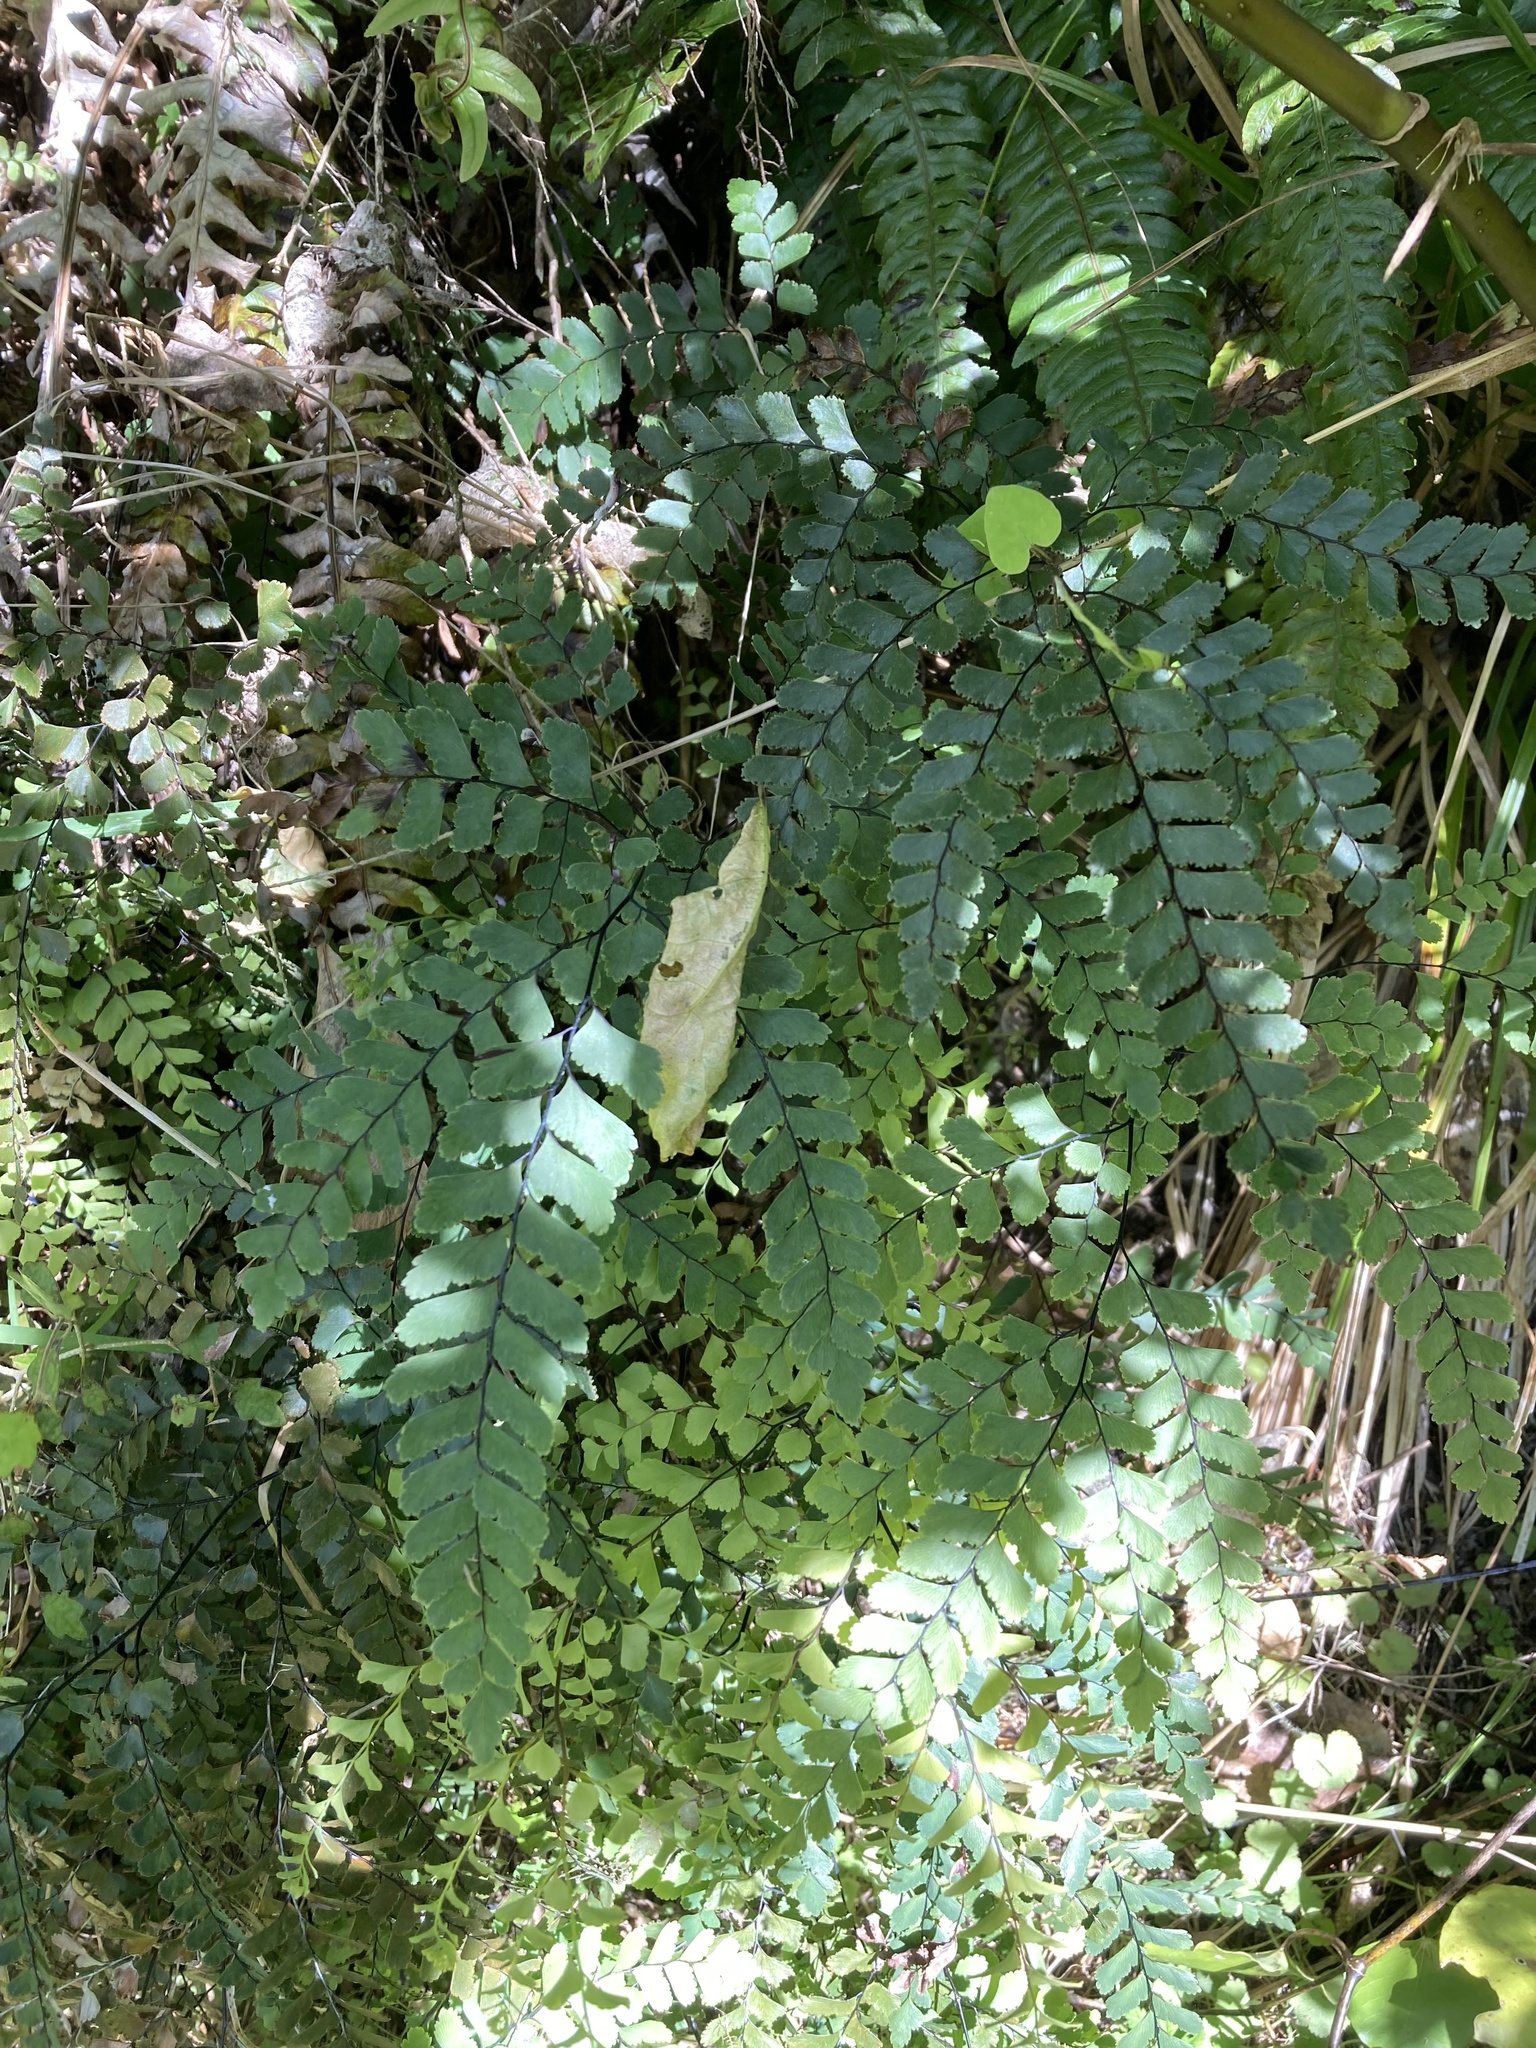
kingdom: Plantae
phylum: Tracheophyta
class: Polypodiopsida
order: Polypodiales
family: Pteridaceae
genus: Adiantum
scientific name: Adiantum cunninghamii
